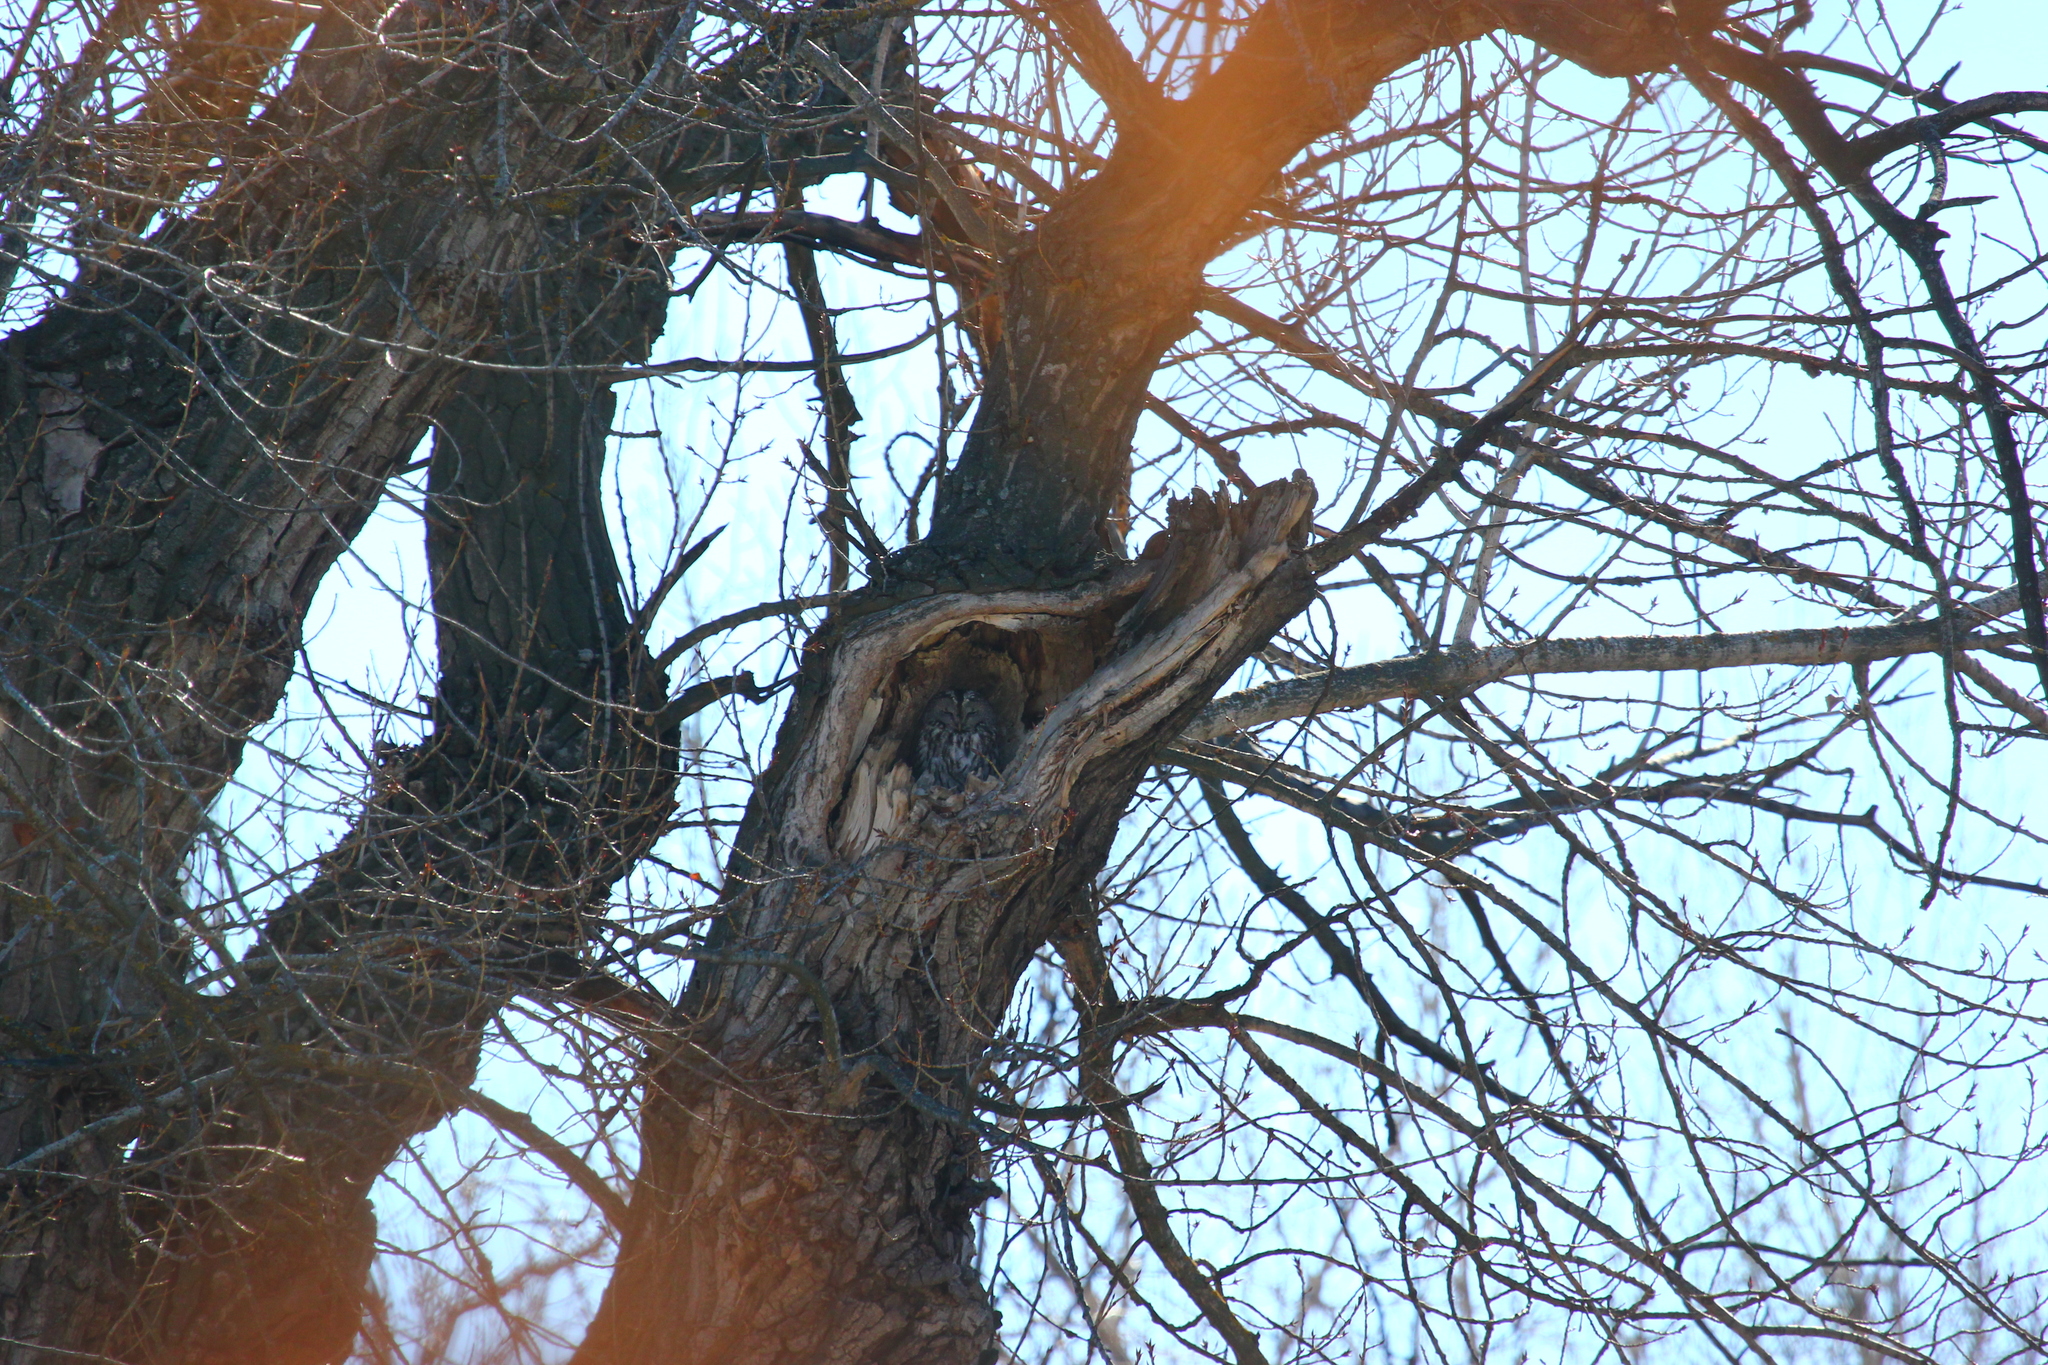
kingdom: Animalia
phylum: Chordata
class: Aves
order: Strigiformes
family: Strigidae
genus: Strix
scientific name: Strix aluco
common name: Tawny owl
